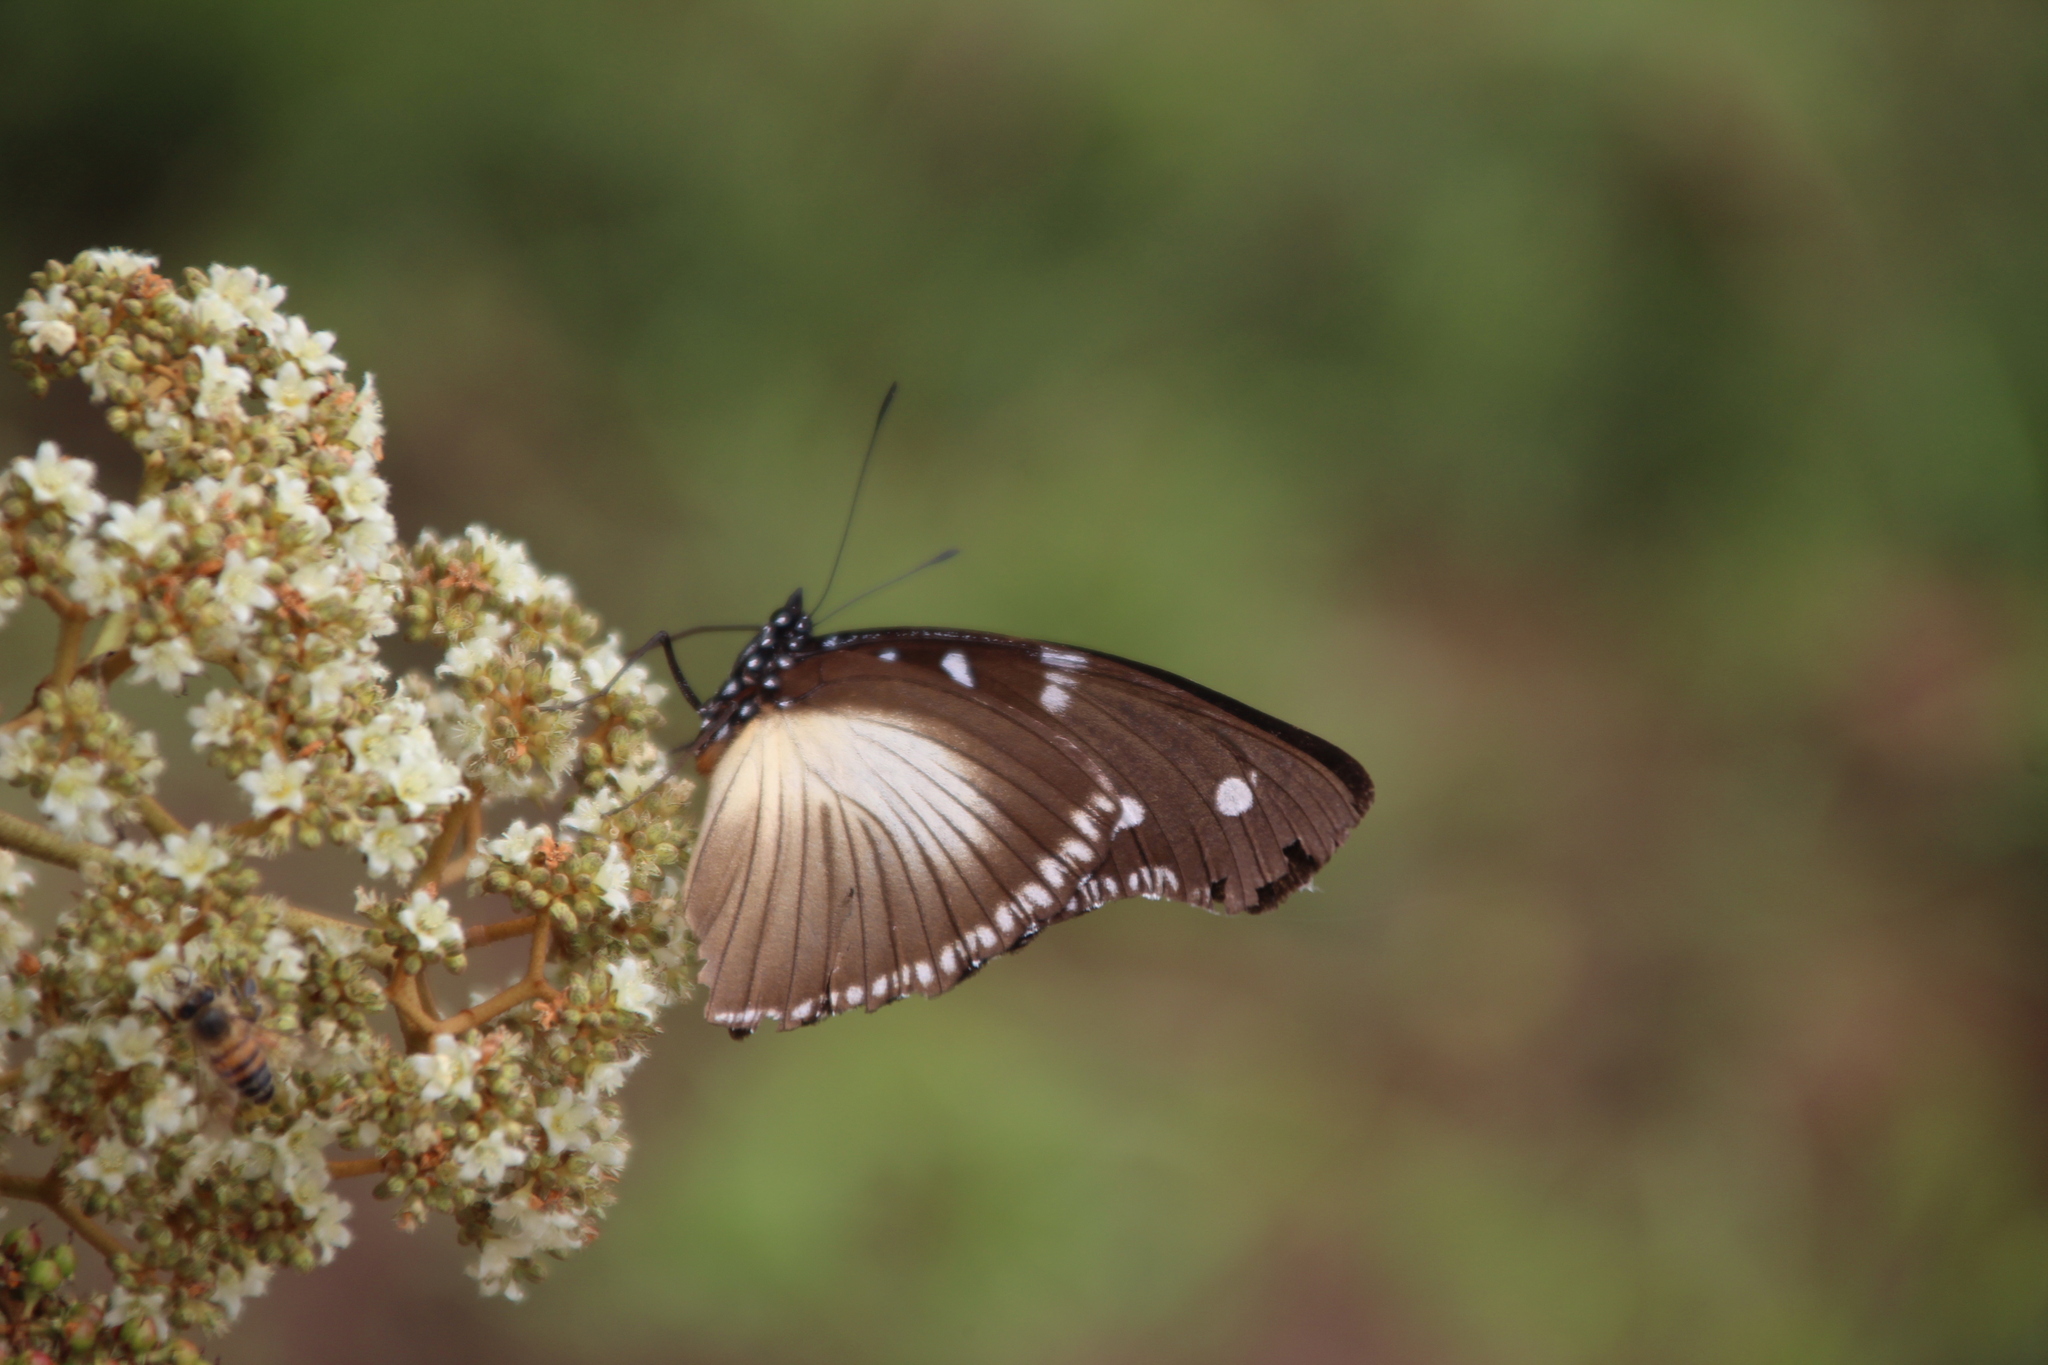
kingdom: Animalia
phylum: Arthropoda
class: Insecta
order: Lepidoptera
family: Nymphalidae
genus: Hypolimnas
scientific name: Hypolimnas dinarcha
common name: Large variable diadem
